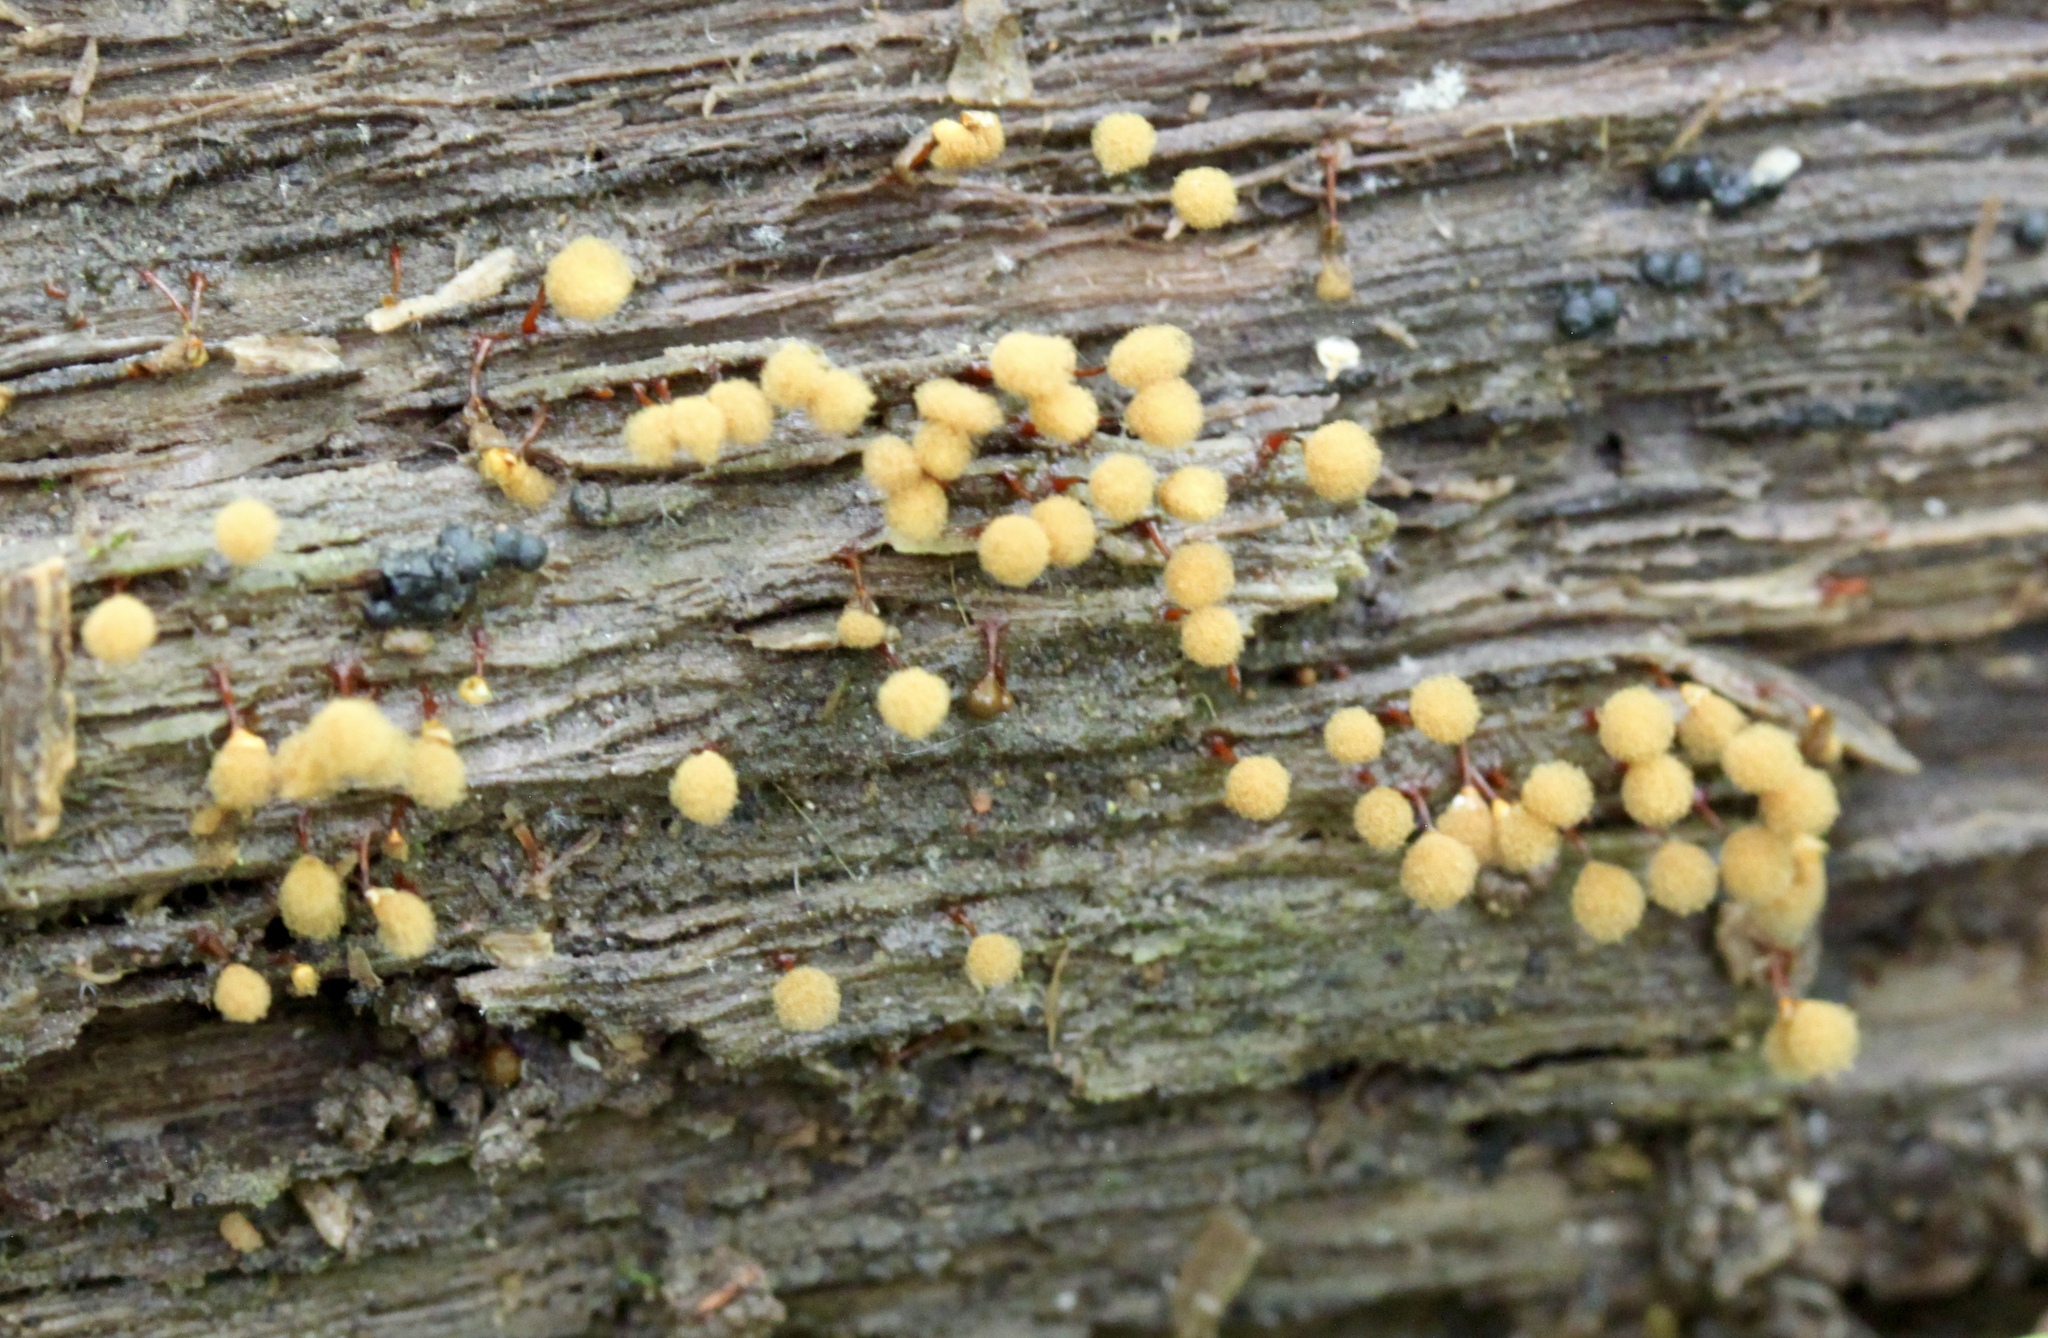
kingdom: Protozoa
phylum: Mycetozoa
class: Myxomycetes
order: Trichiales
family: Arcyriaceae
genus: Hemitrichia
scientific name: Hemitrichia calyculata
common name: Push pin slime mold
